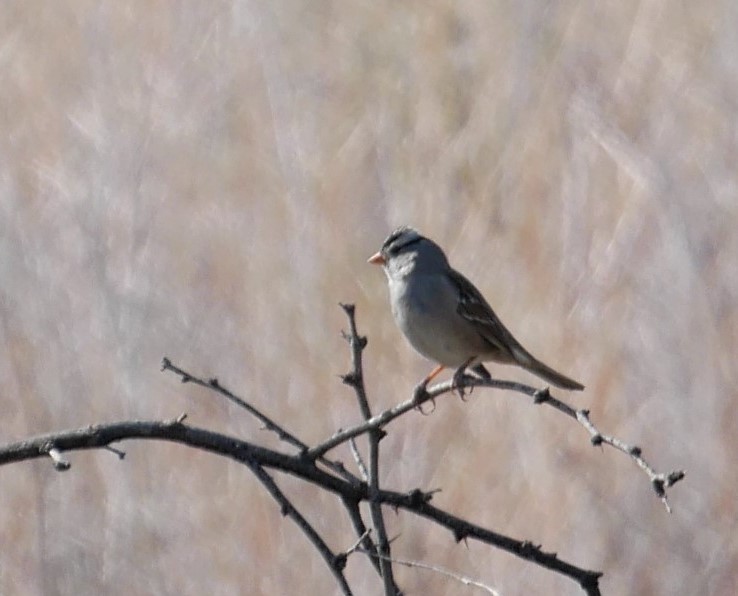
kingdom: Animalia
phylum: Chordata
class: Aves
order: Passeriformes
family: Passerellidae
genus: Zonotrichia
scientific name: Zonotrichia leucophrys
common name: White-crowned sparrow
